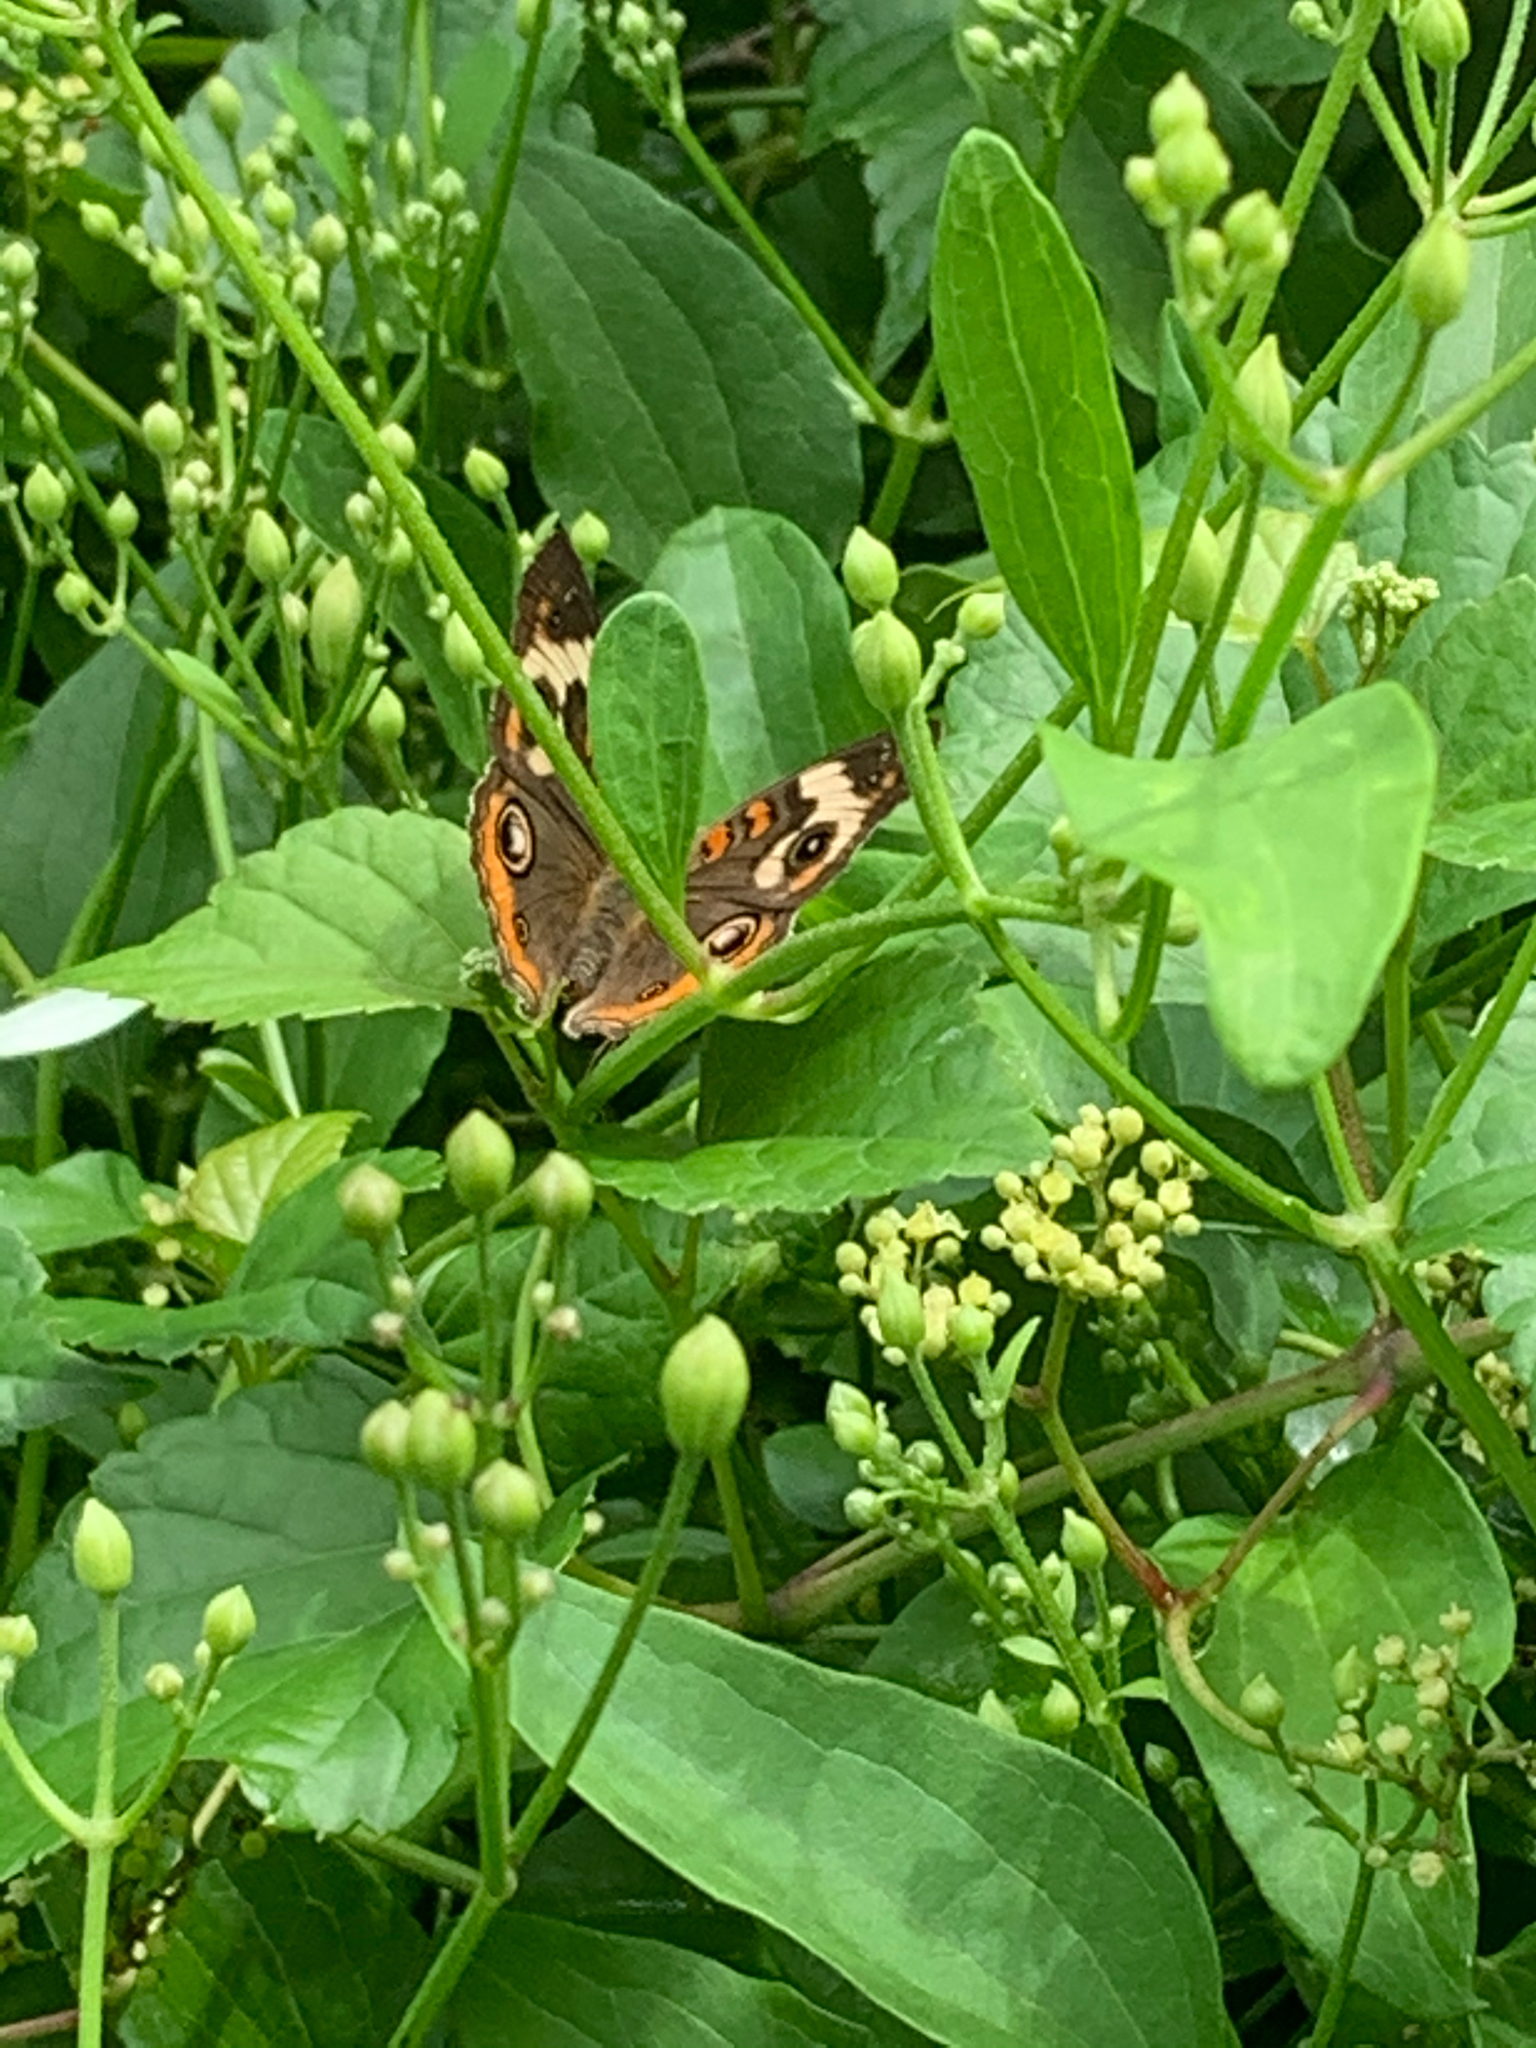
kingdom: Animalia
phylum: Arthropoda
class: Insecta
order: Lepidoptera
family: Nymphalidae
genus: Junonia
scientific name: Junonia coenia
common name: Common buckeye
